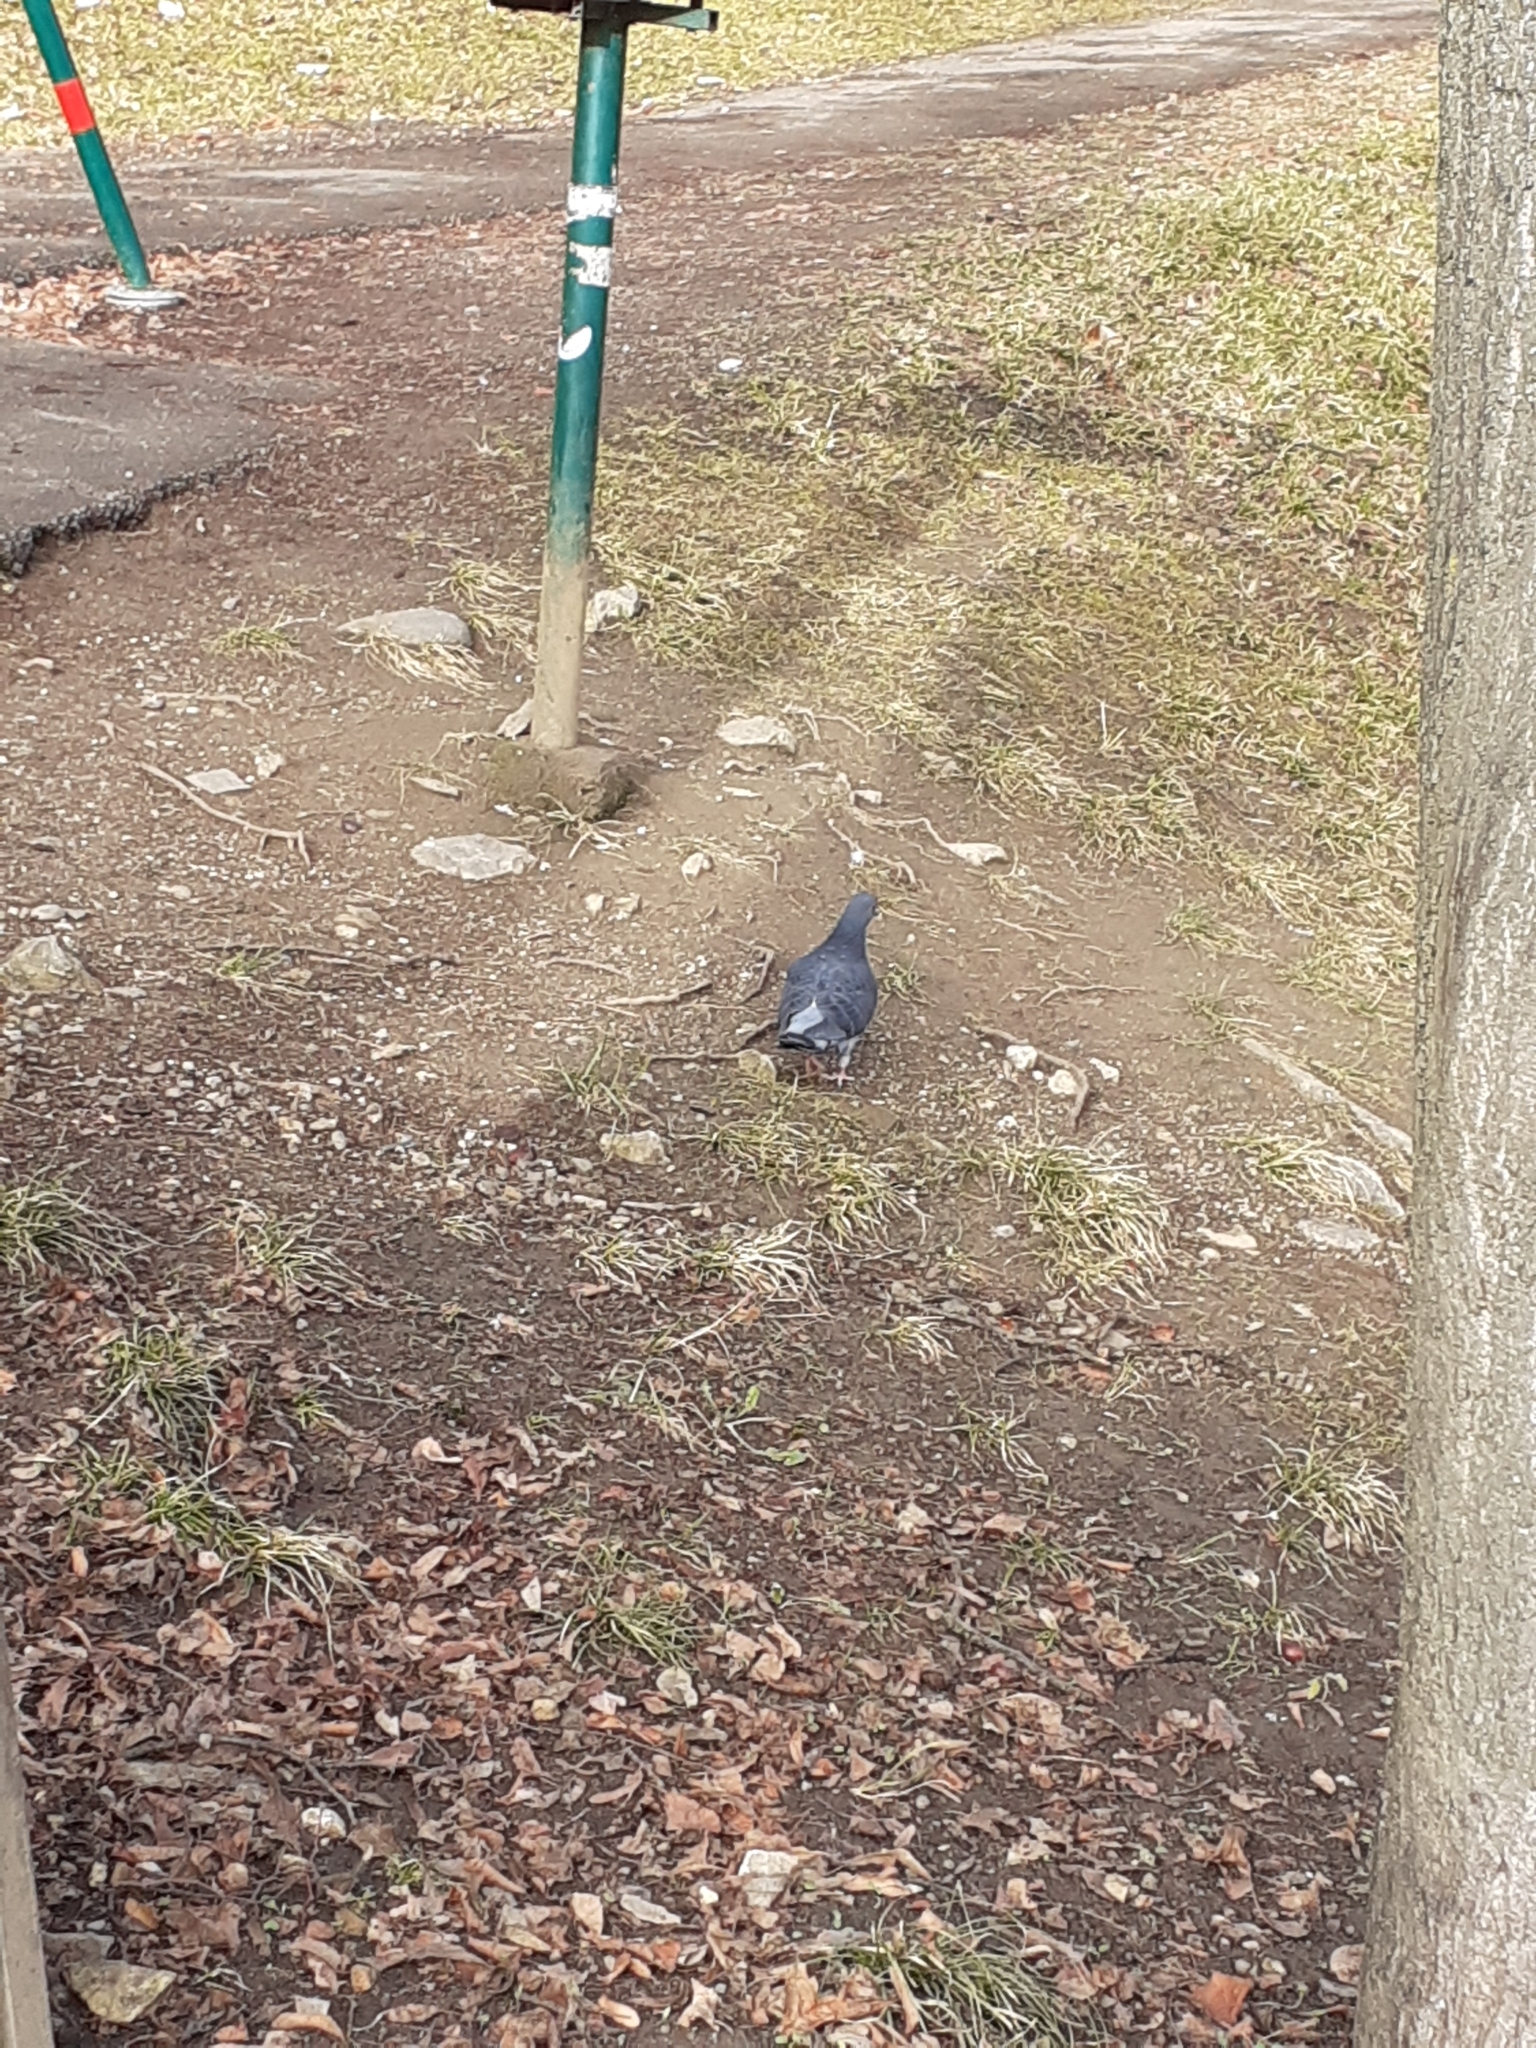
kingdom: Animalia
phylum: Chordata
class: Aves
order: Columbiformes
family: Columbidae
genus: Columba
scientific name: Columba livia
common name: Rock pigeon
